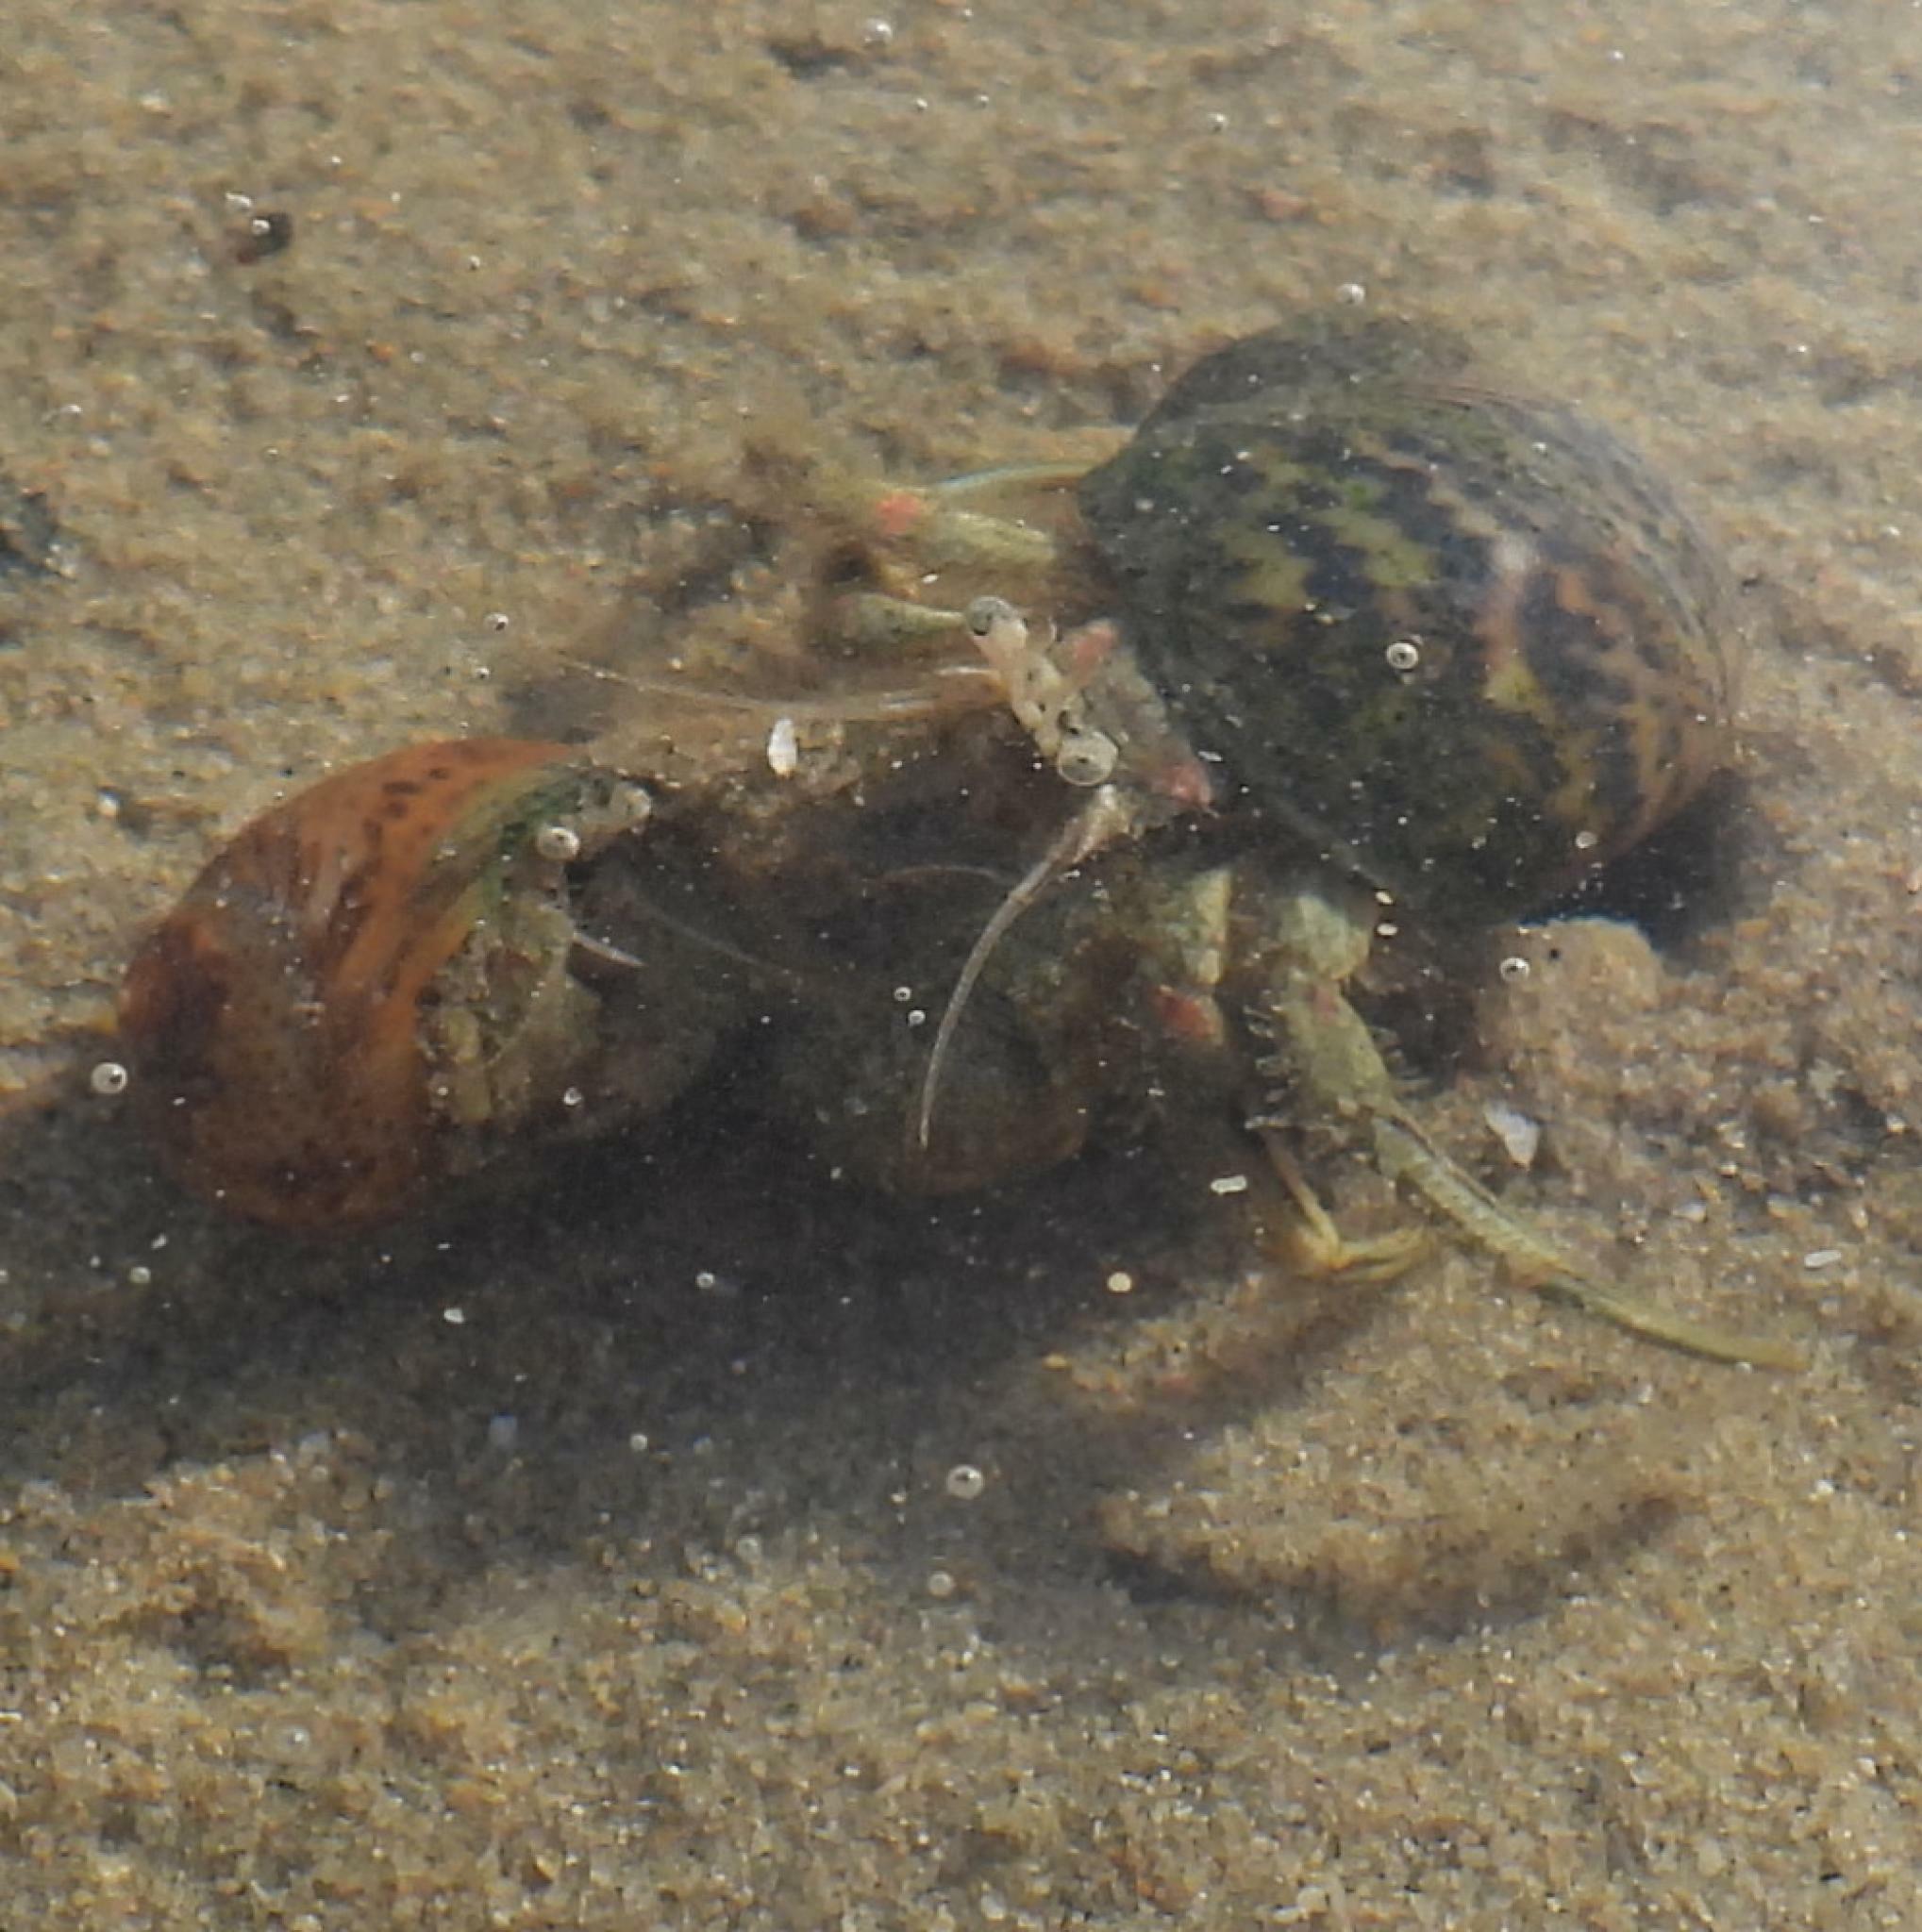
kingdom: Animalia
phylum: Arthropoda
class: Malacostraca
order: Decapoda
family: Diogenidae
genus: Diogenes
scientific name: Diogenes brevirostris
